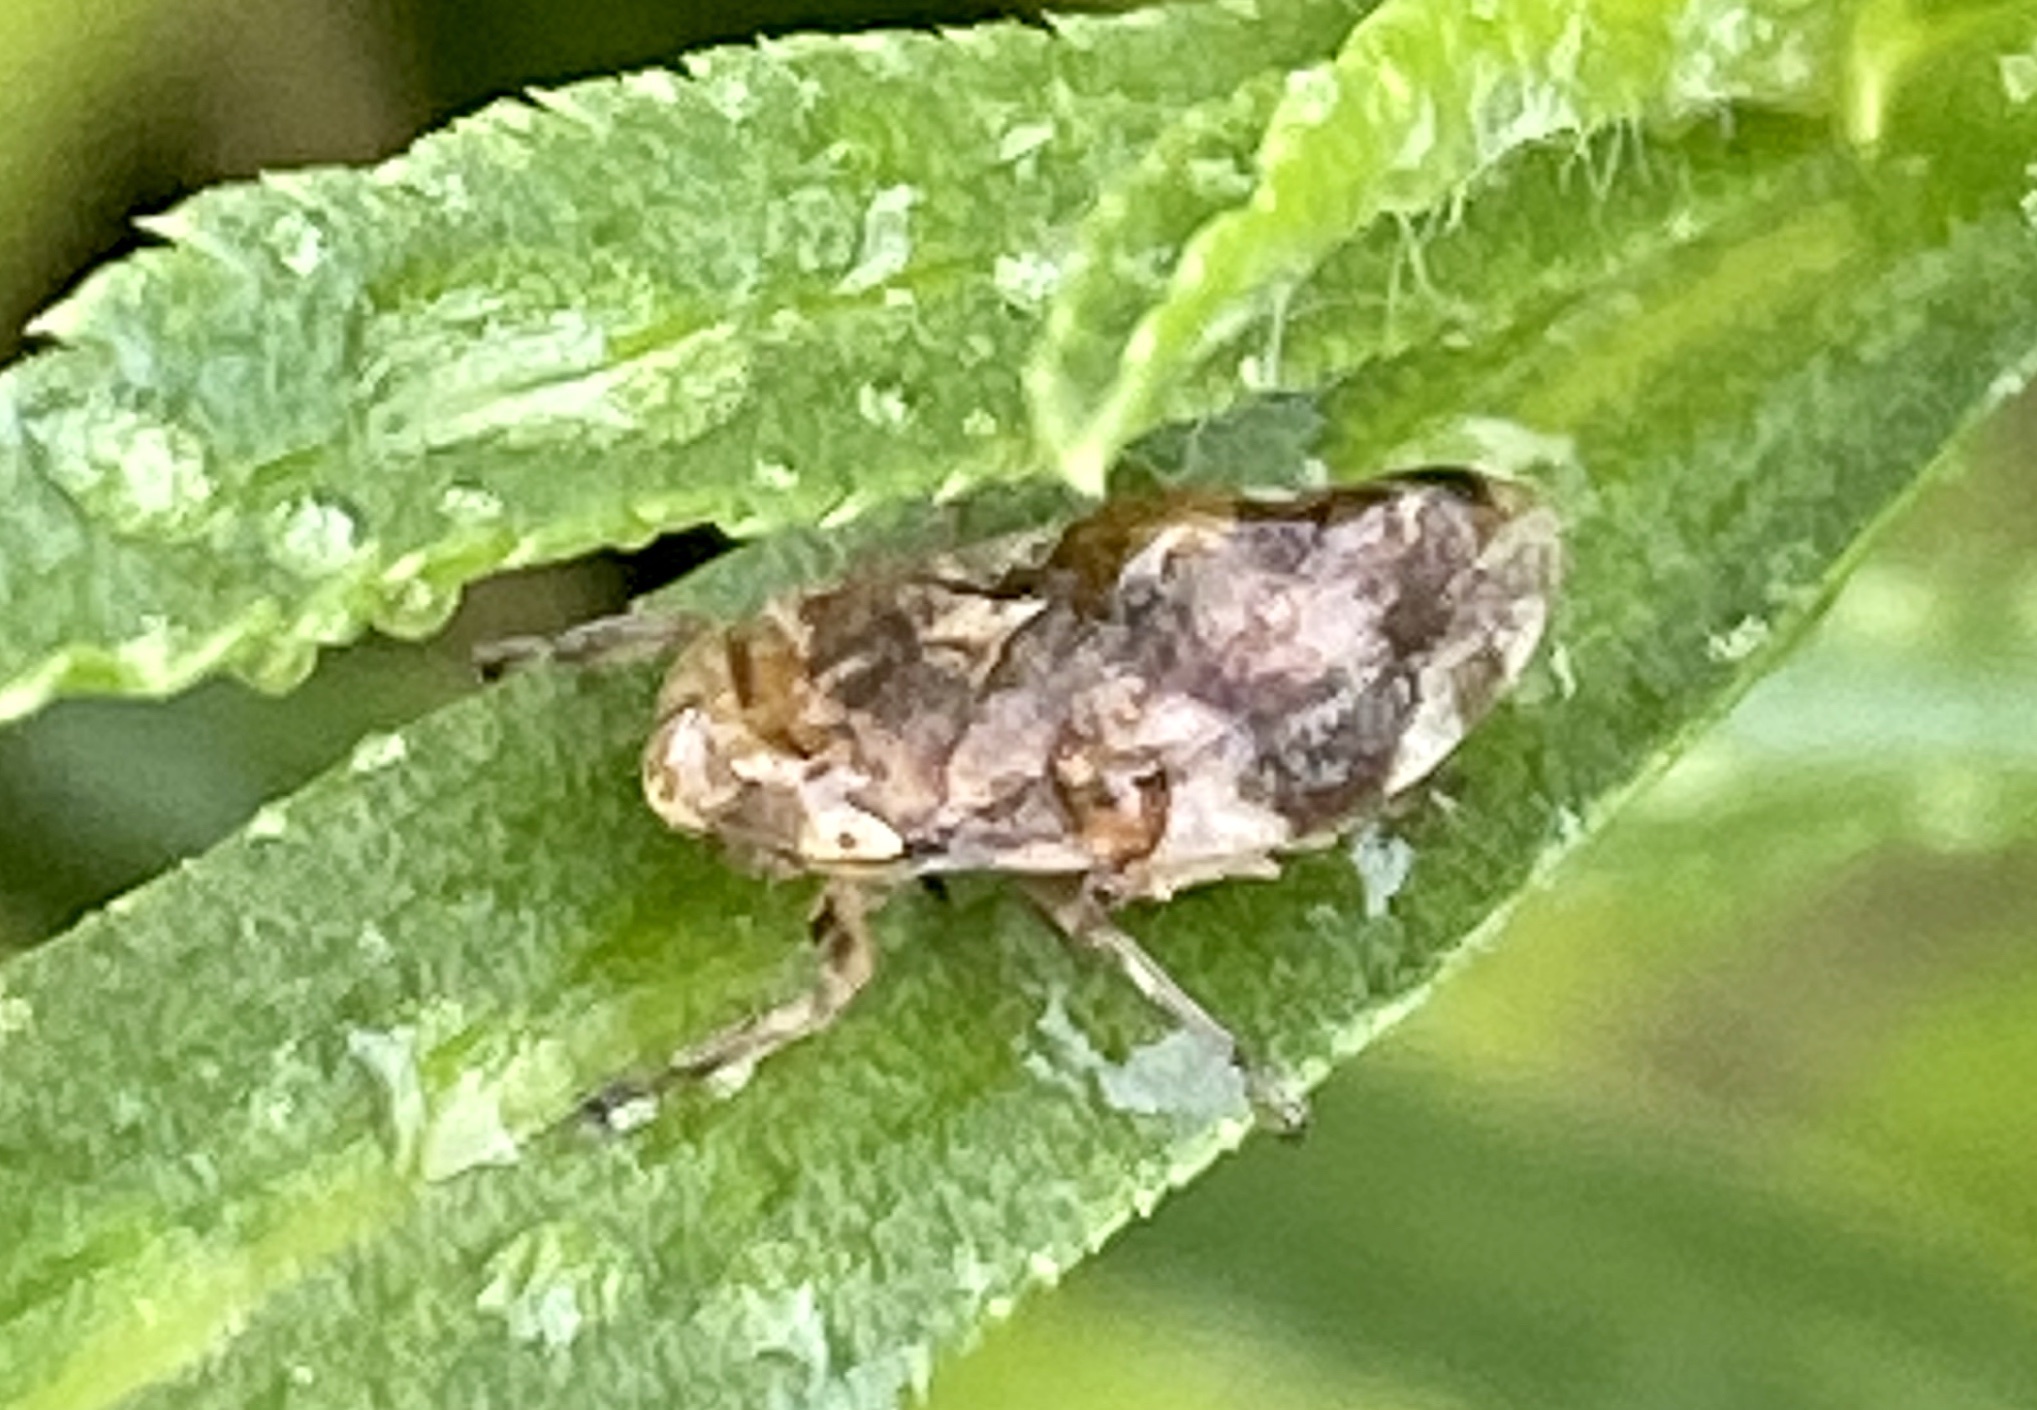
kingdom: Animalia
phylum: Arthropoda
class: Insecta
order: Hemiptera
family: Aphrophoridae
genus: Philaenus
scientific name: Philaenus spumarius
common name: Meadow spittlebug
